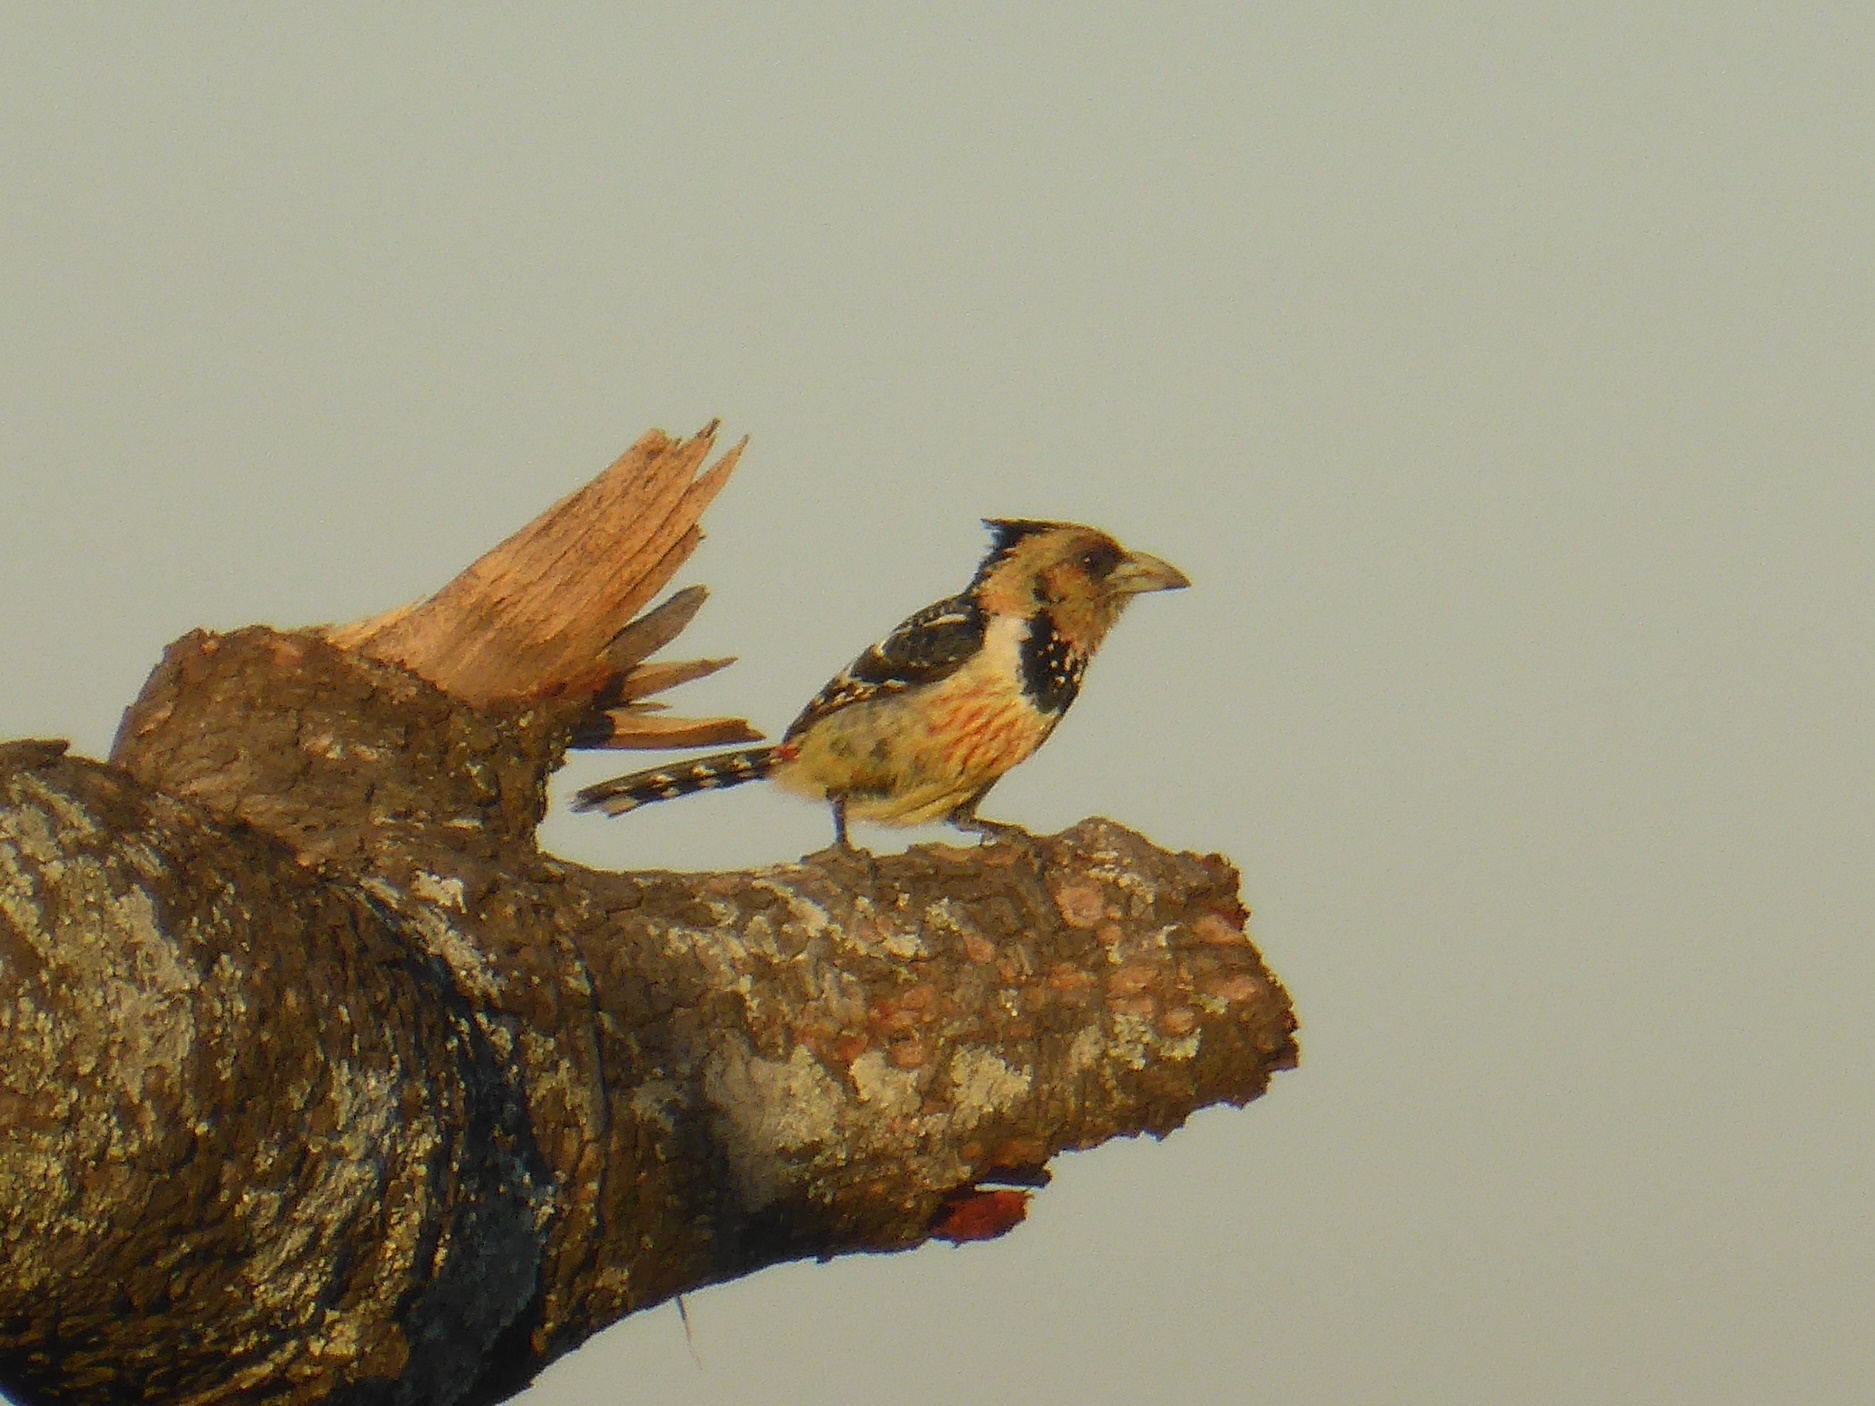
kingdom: Animalia
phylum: Chordata
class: Aves
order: Piciformes
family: Lybiidae
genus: Trachyphonus
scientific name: Trachyphonus vaillantii
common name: Crested barbet
